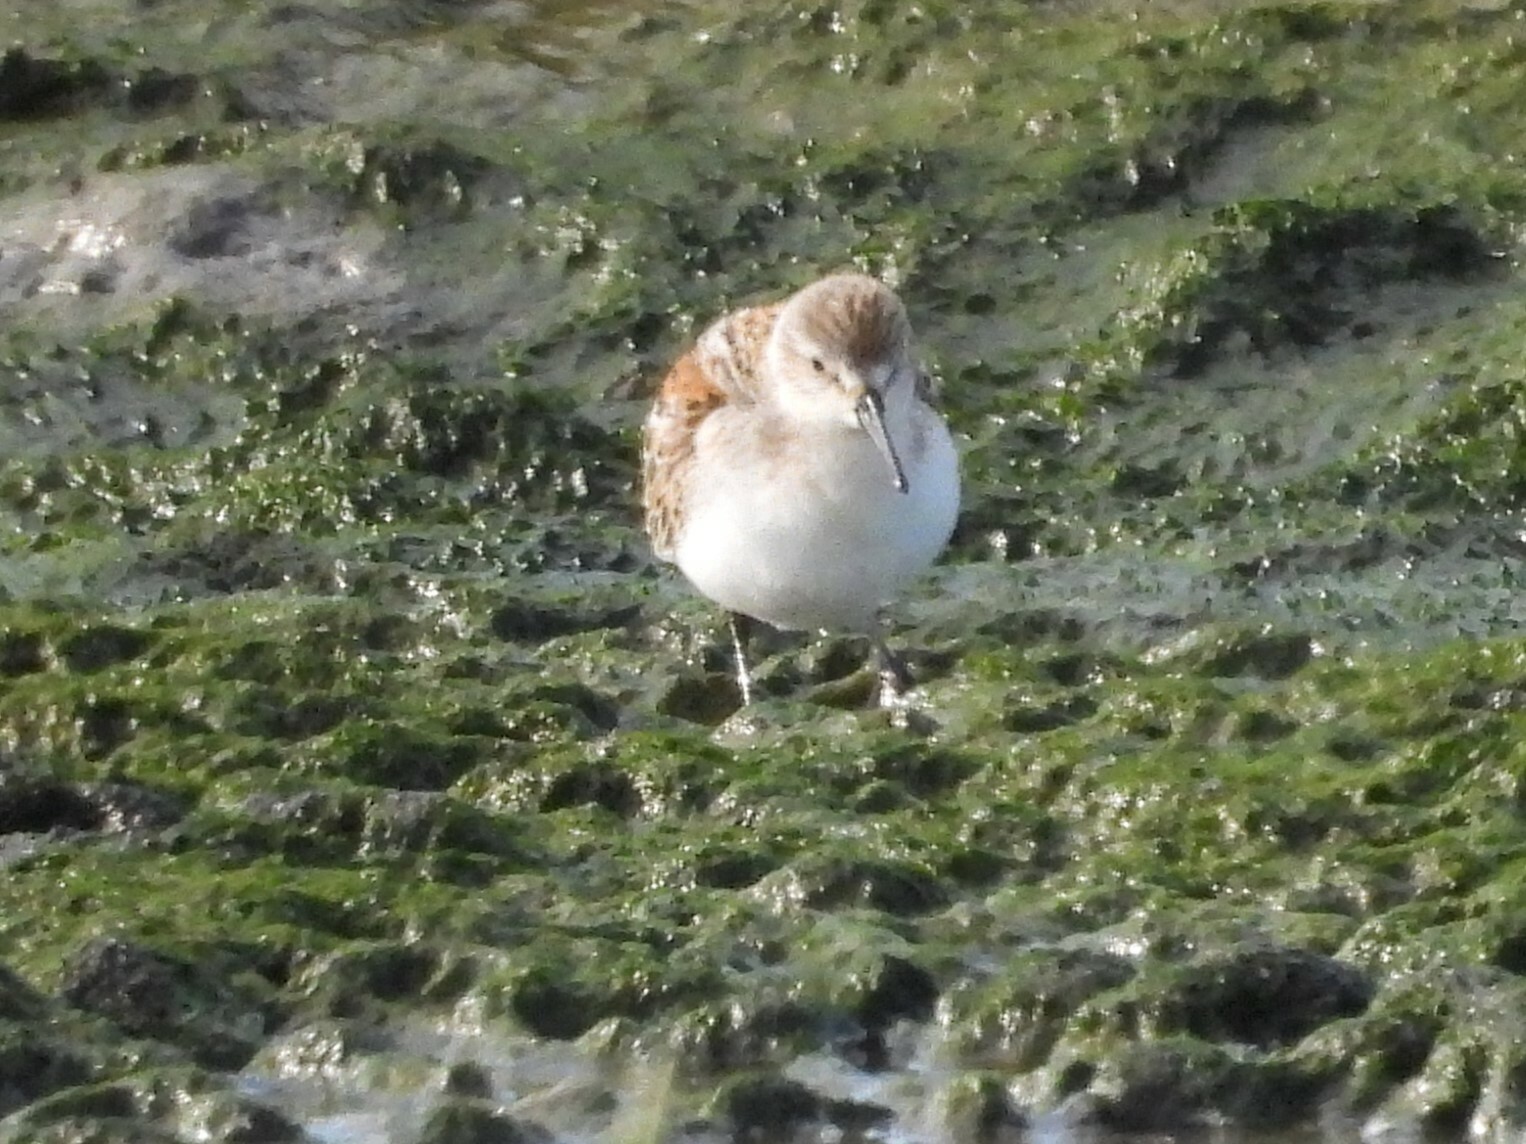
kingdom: Animalia
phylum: Chordata
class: Aves
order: Charadriiformes
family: Scolopacidae
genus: Calidris
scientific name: Calidris mauri
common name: Western sandpiper
